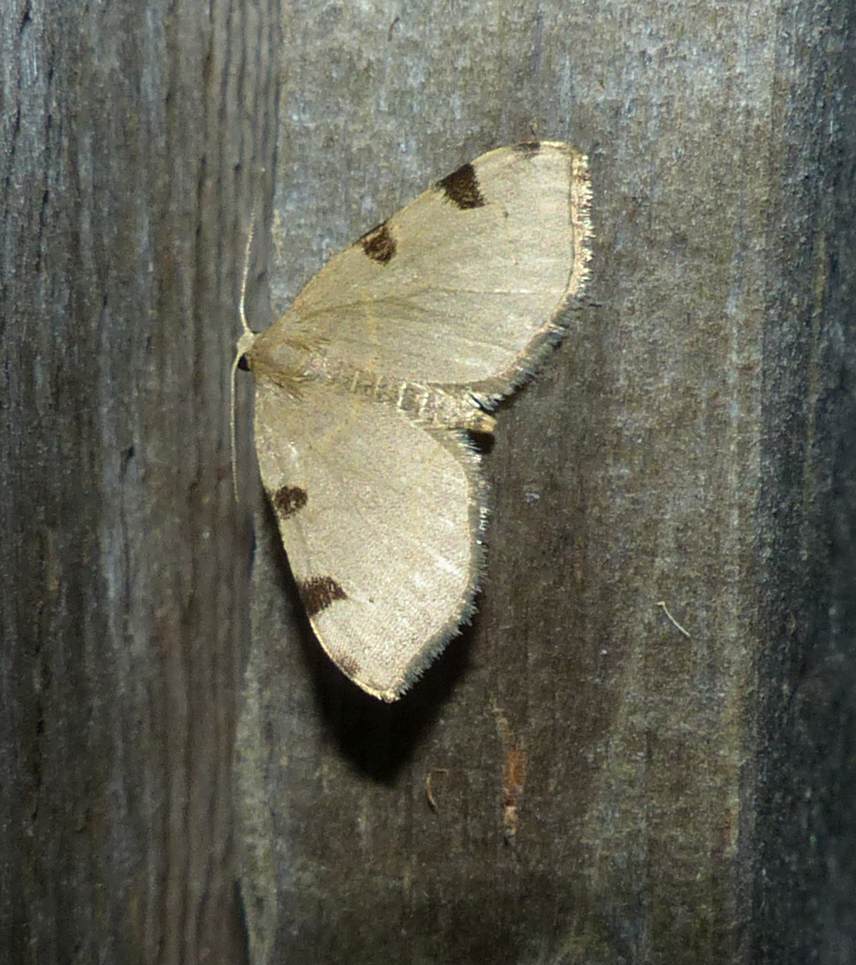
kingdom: Animalia
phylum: Arthropoda
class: Insecta
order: Lepidoptera
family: Geometridae
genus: Heterophleps
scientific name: Heterophleps triguttaria
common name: Three-spotted fillip
